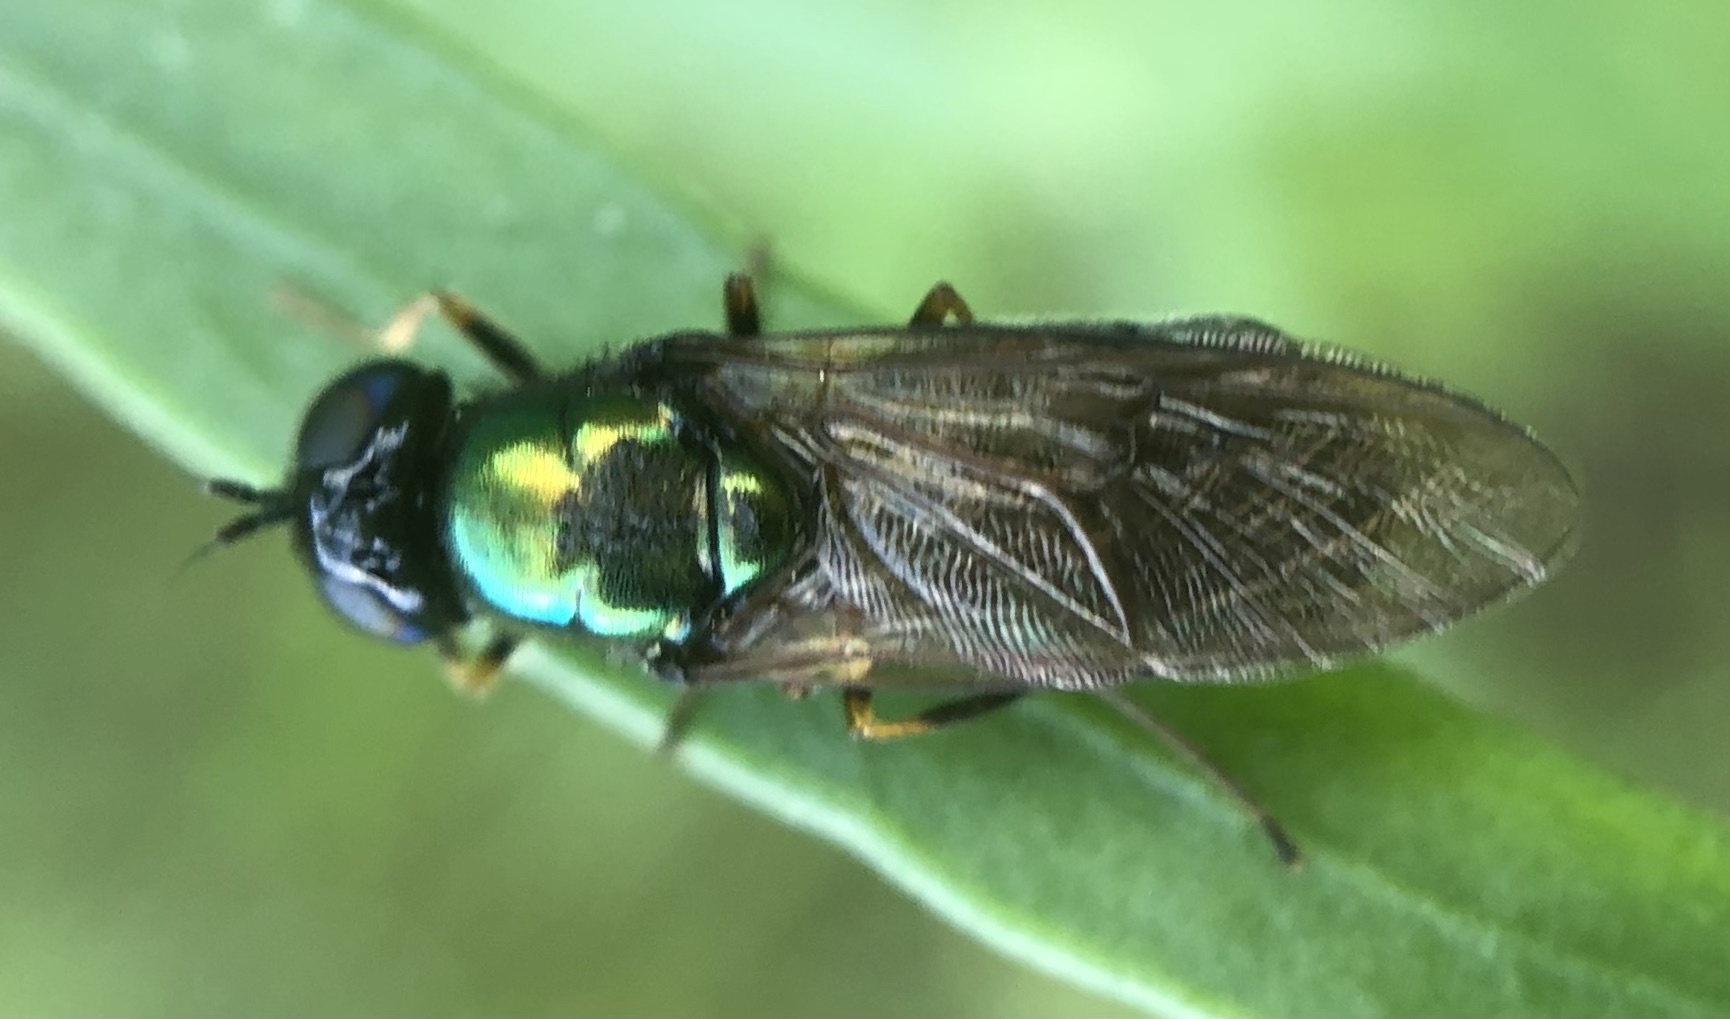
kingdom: Animalia
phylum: Arthropoda
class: Insecta
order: Diptera
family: Stratiomyidae
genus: Chloromyia
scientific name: Chloromyia formosa
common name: Soldier fly
